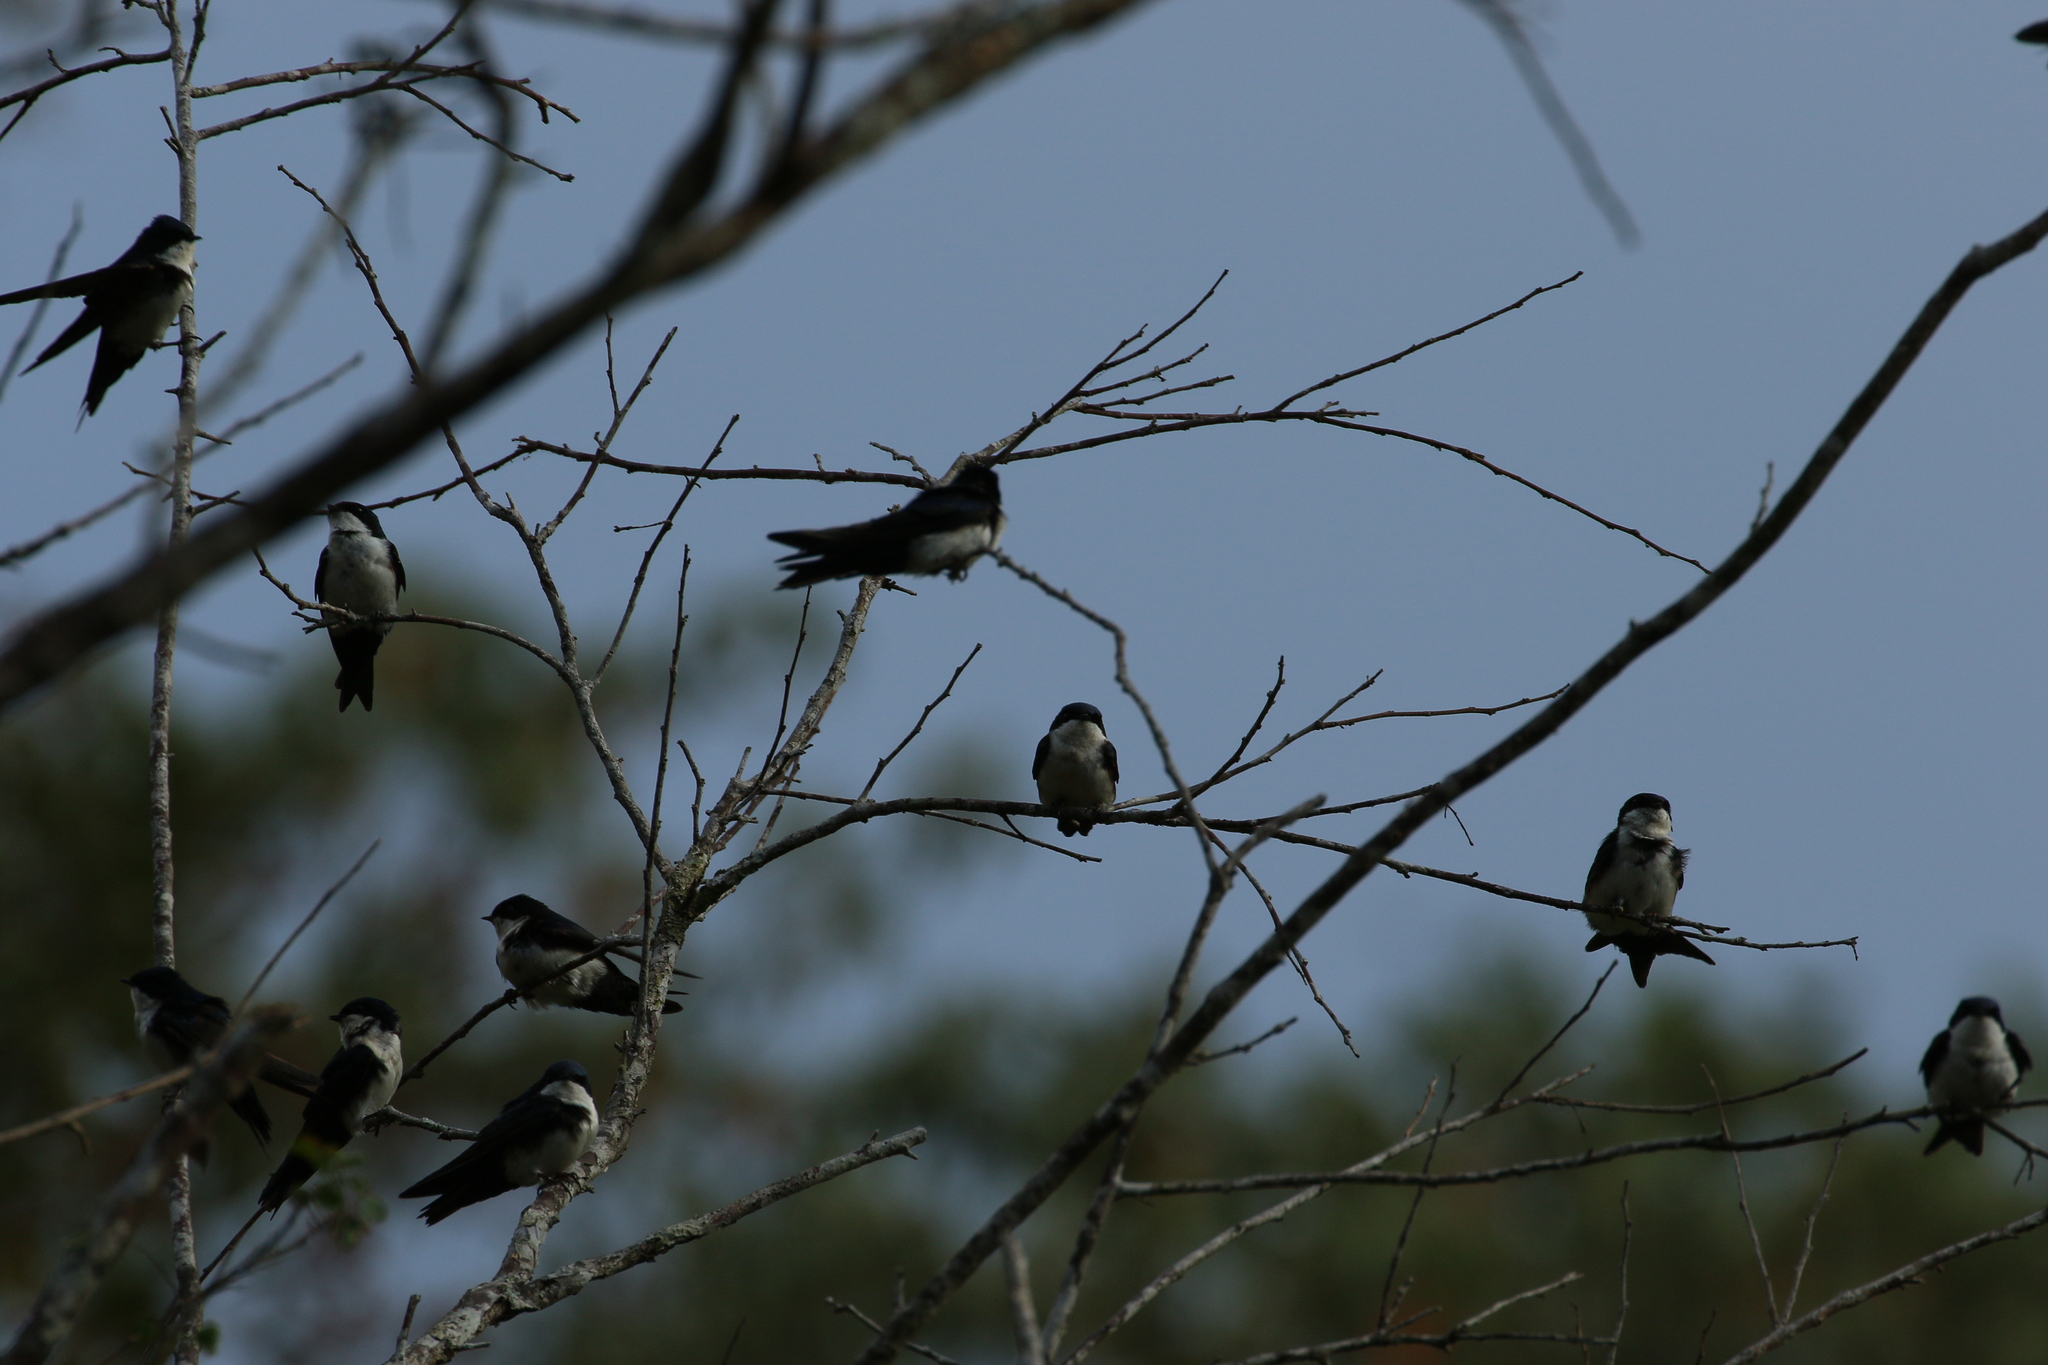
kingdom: Animalia
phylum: Chordata
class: Aves
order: Passeriformes
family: Hirundinidae
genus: Notiochelidon
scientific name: Notiochelidon cyanoleuca
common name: Blue-and-white swallow
